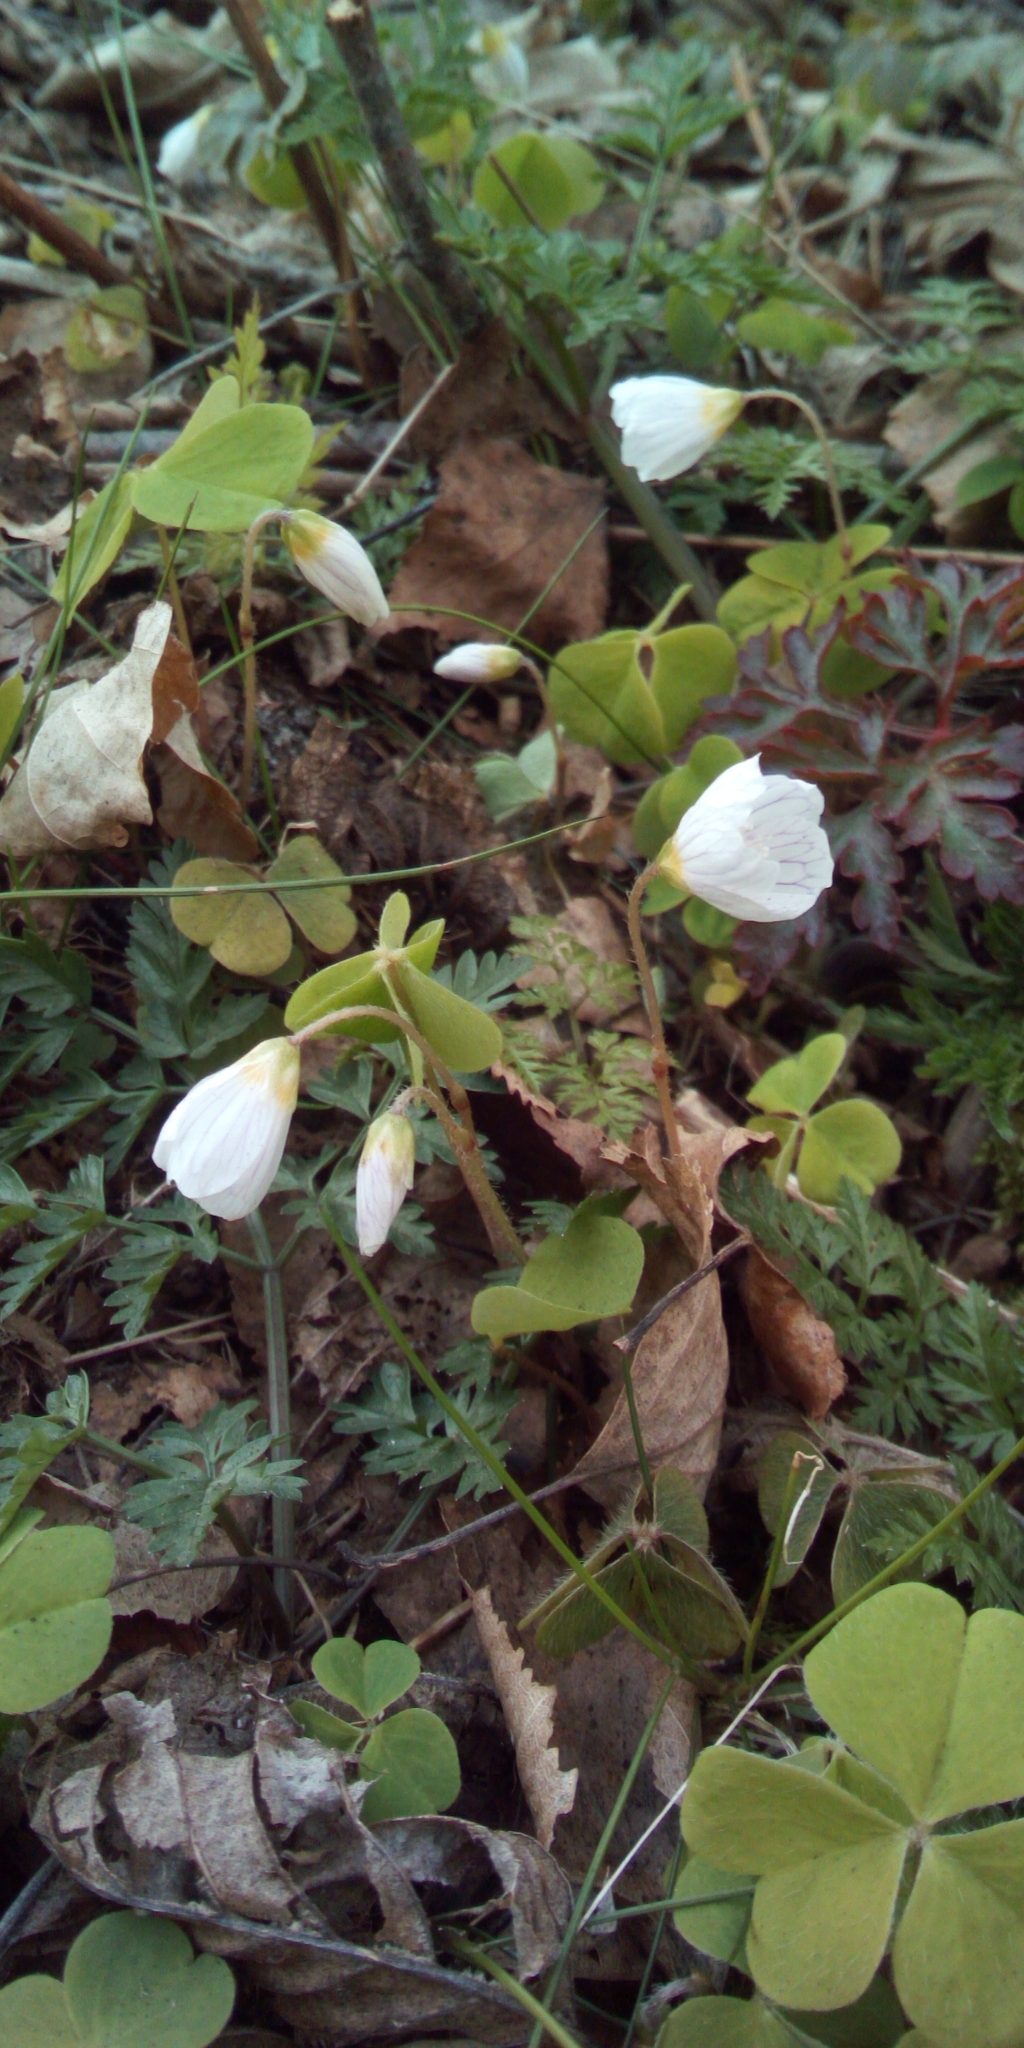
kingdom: Plantae
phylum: Tracheophyta
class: Magnoliopsida
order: Oxalidales
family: Oxalidaceae
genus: Oxalis
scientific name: Oxalis acetosella
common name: Wood-sorrel
